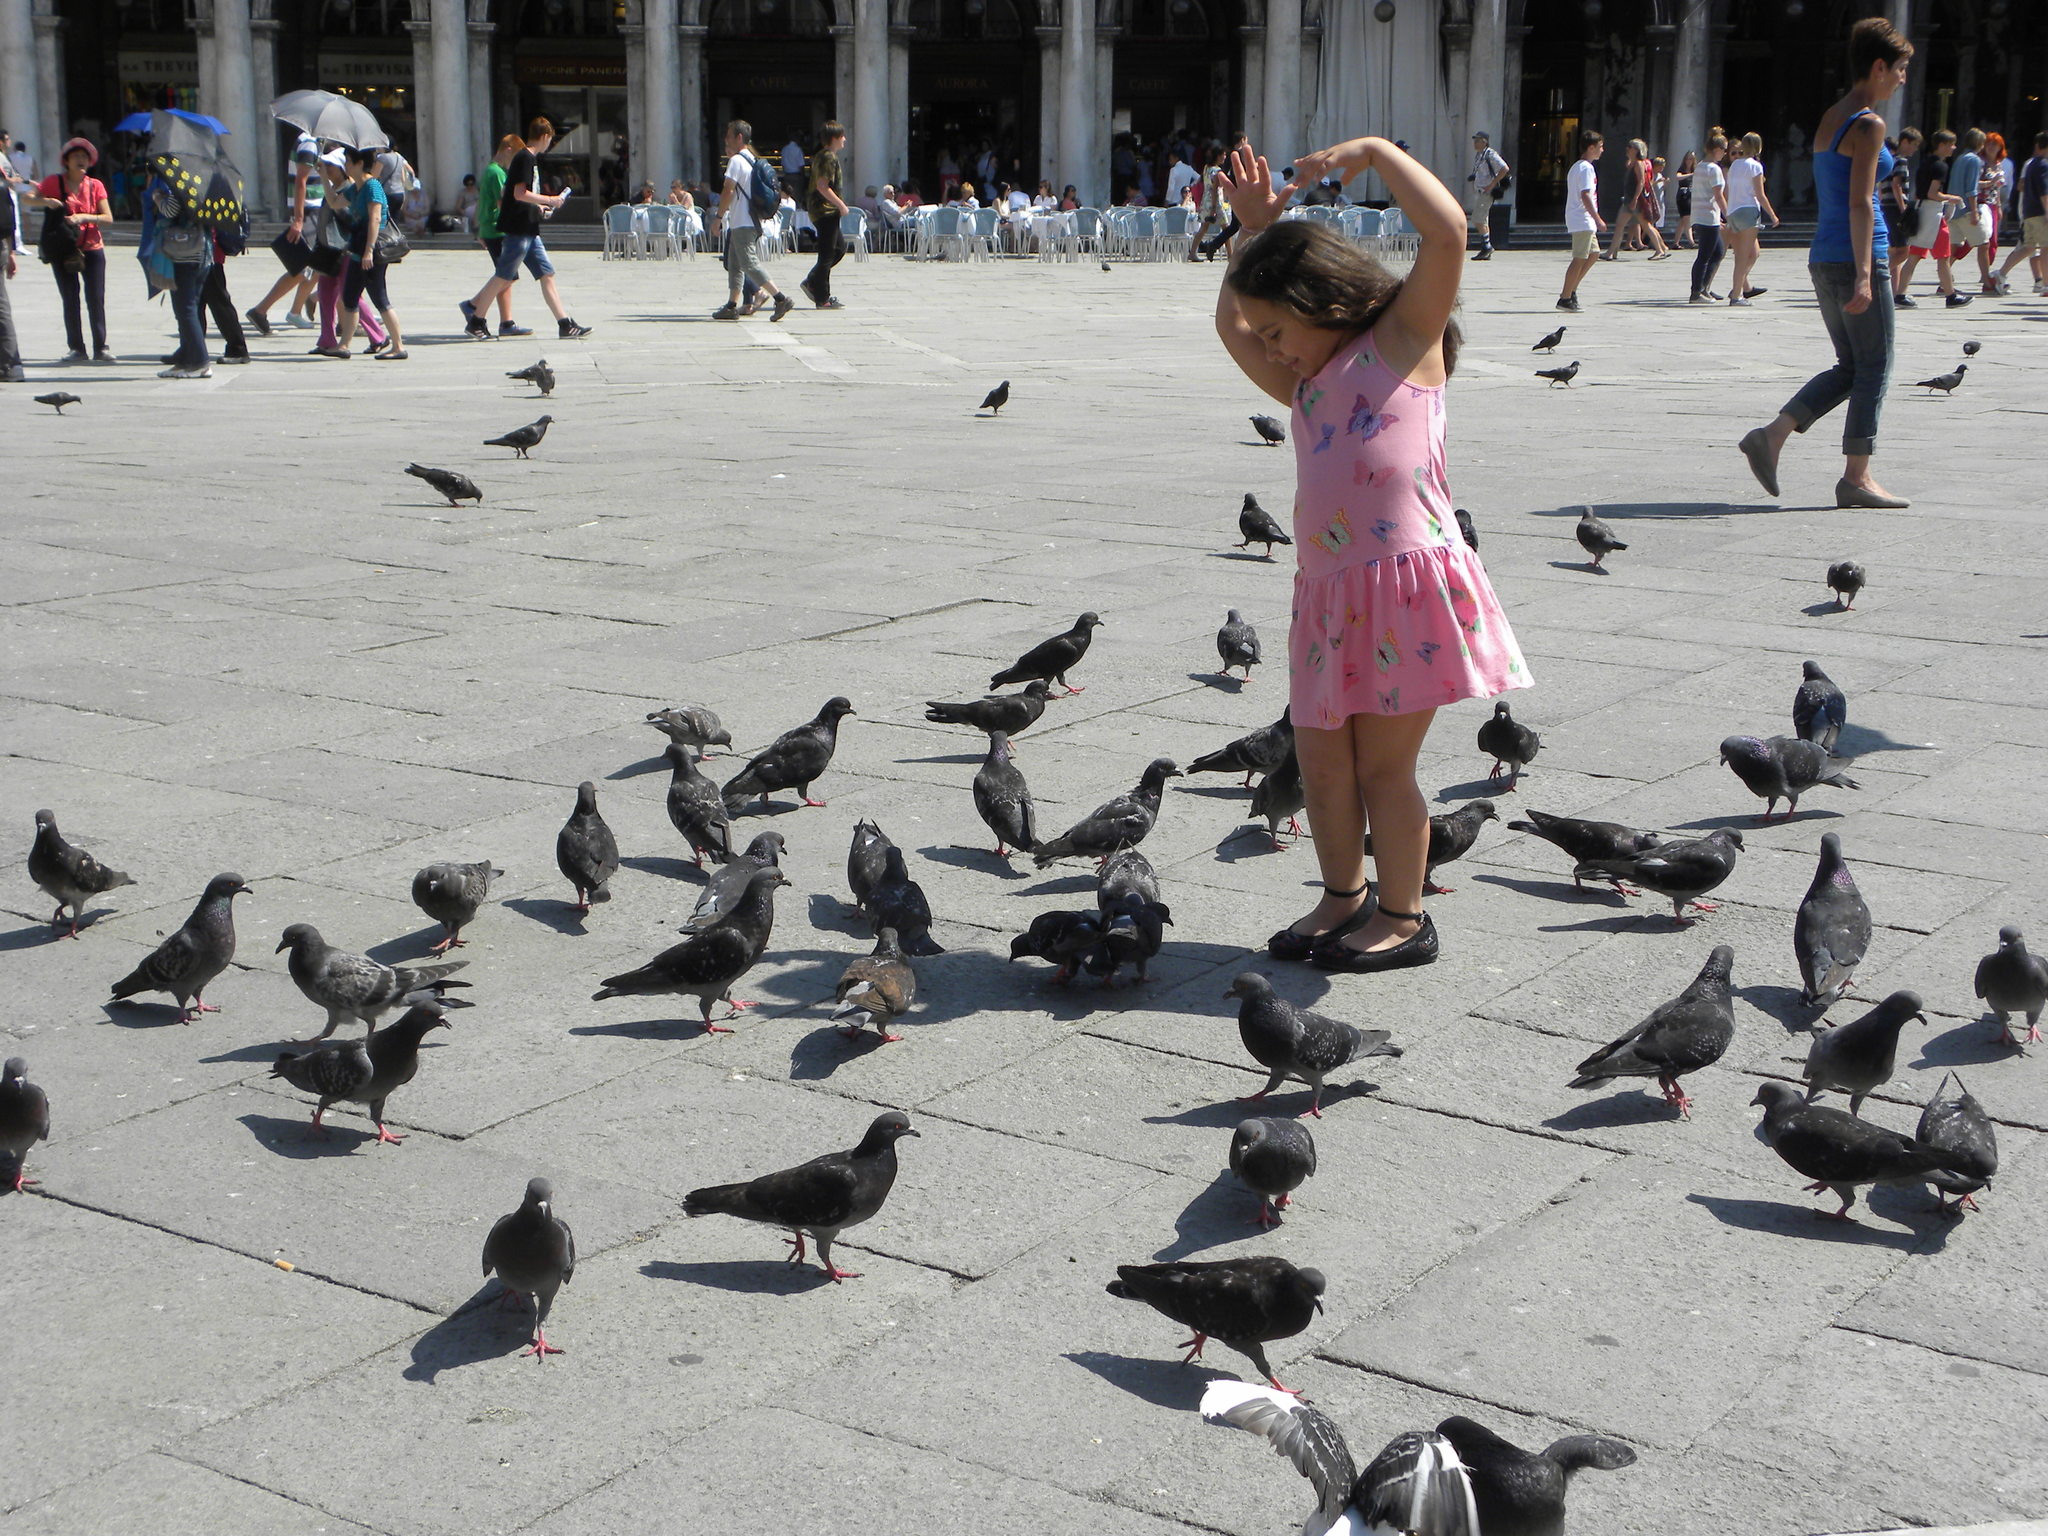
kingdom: Animalia
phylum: Chordata
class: Aves
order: Columbiformes
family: Columbidae
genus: Columba
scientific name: Columba livia
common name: Rock pigeon
